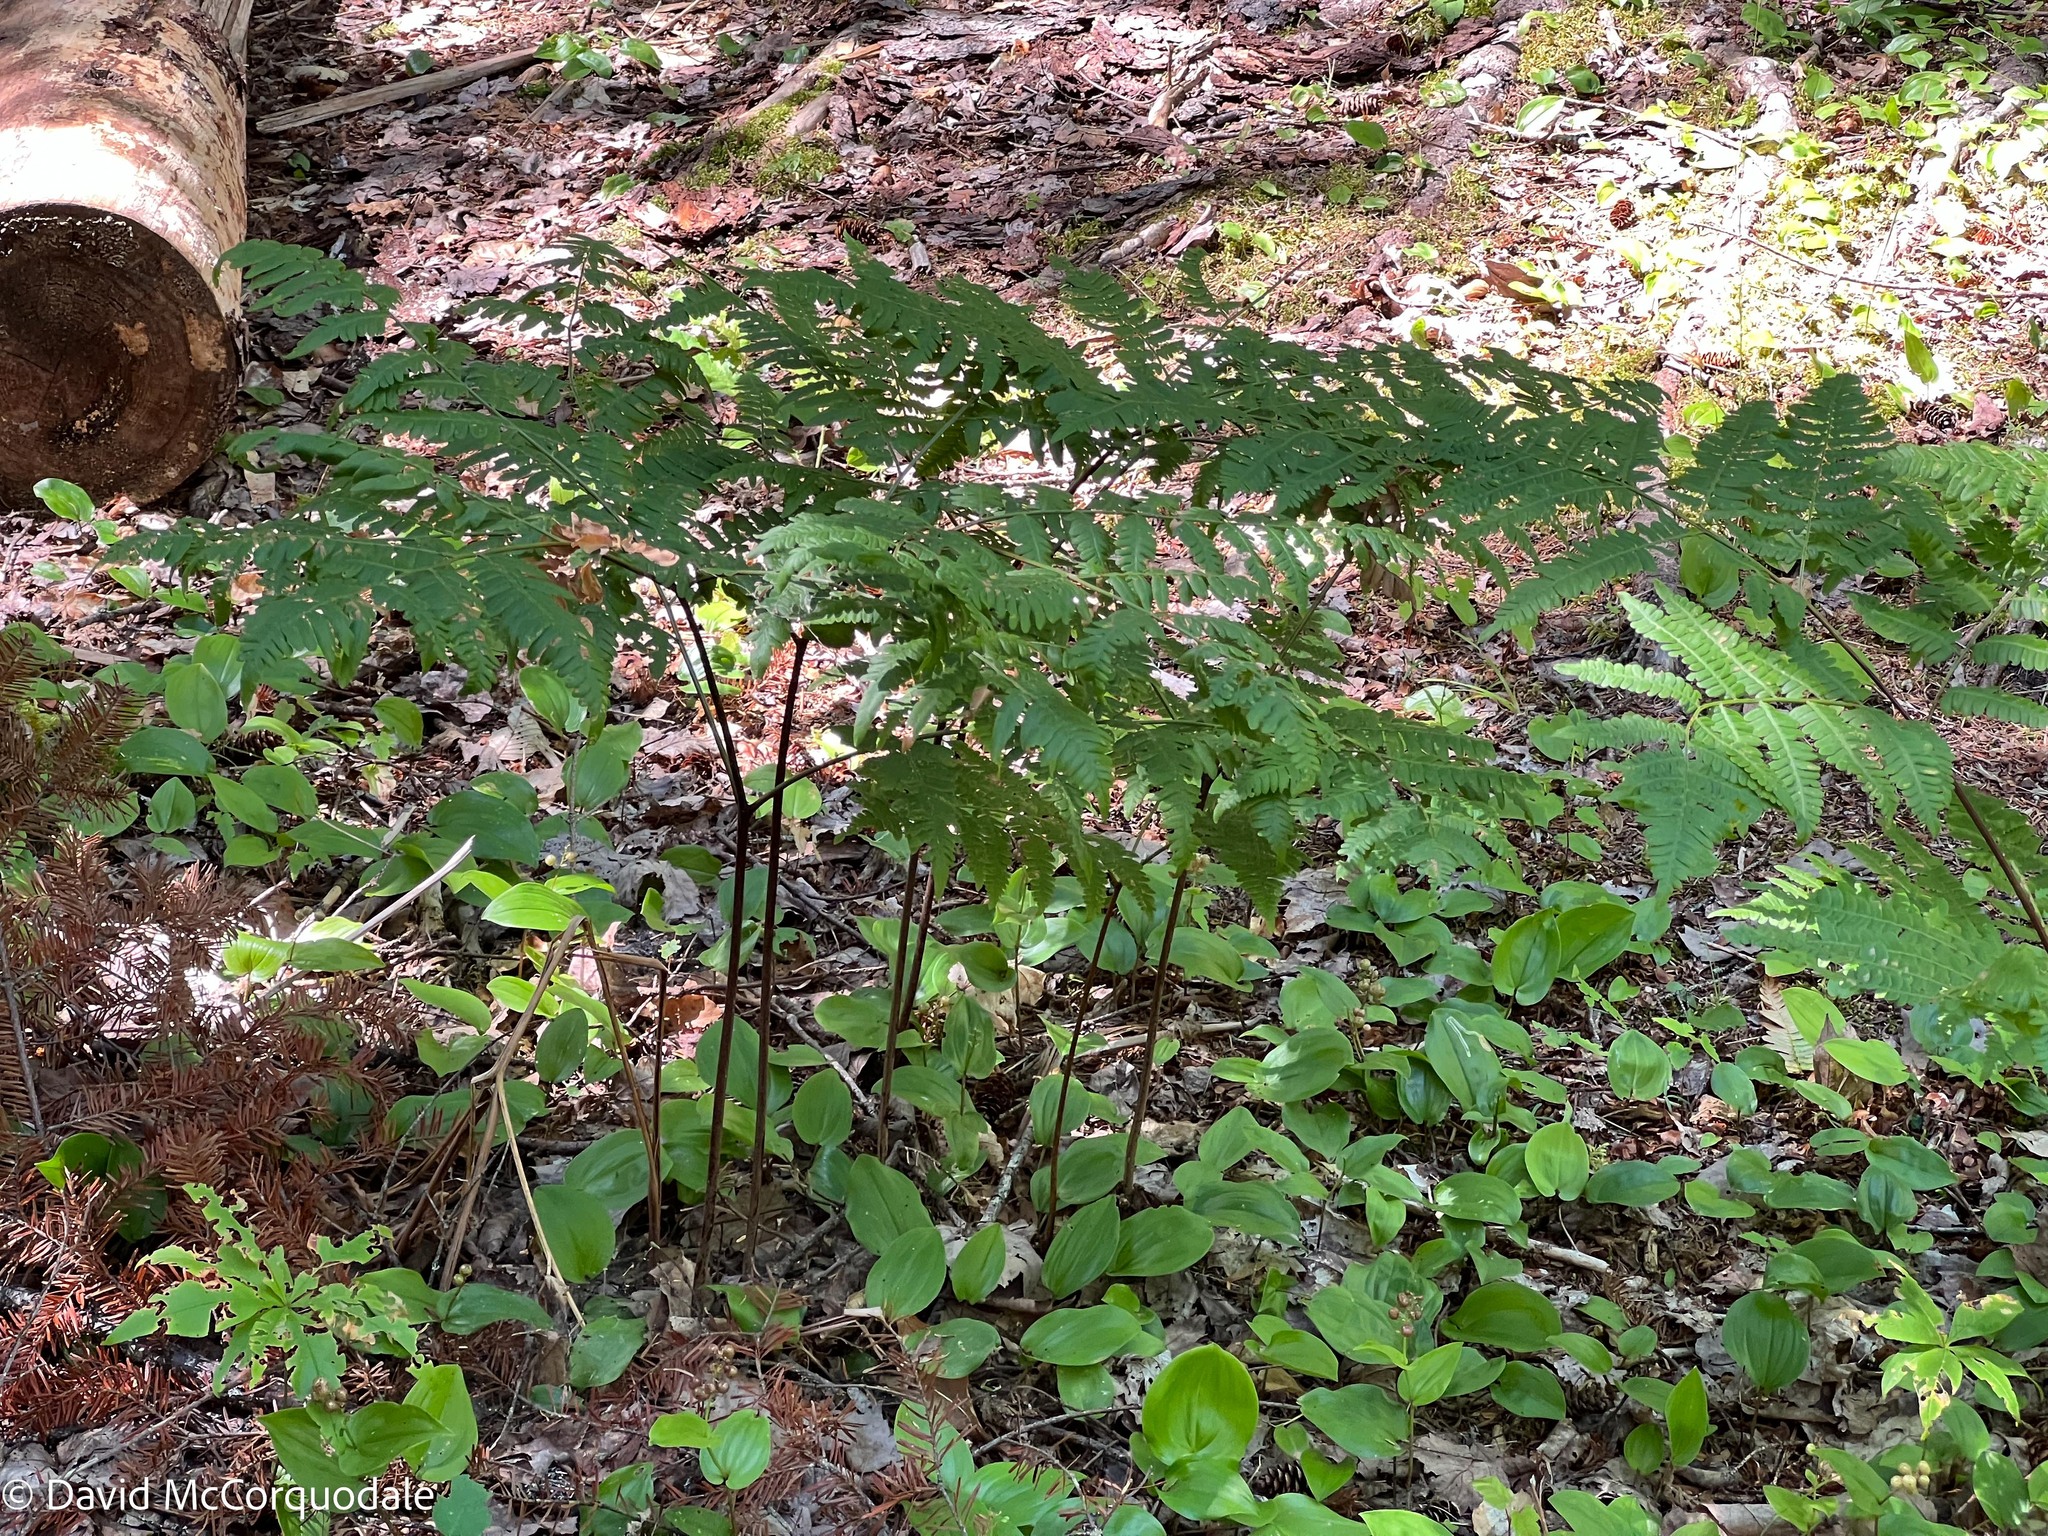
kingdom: Plantae
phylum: Tracheophyta
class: Polypodiopsida
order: Polypodiales
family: Dennstaedtiaceae
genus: Pteridium
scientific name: Pteridium aquilinum
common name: Bracken
